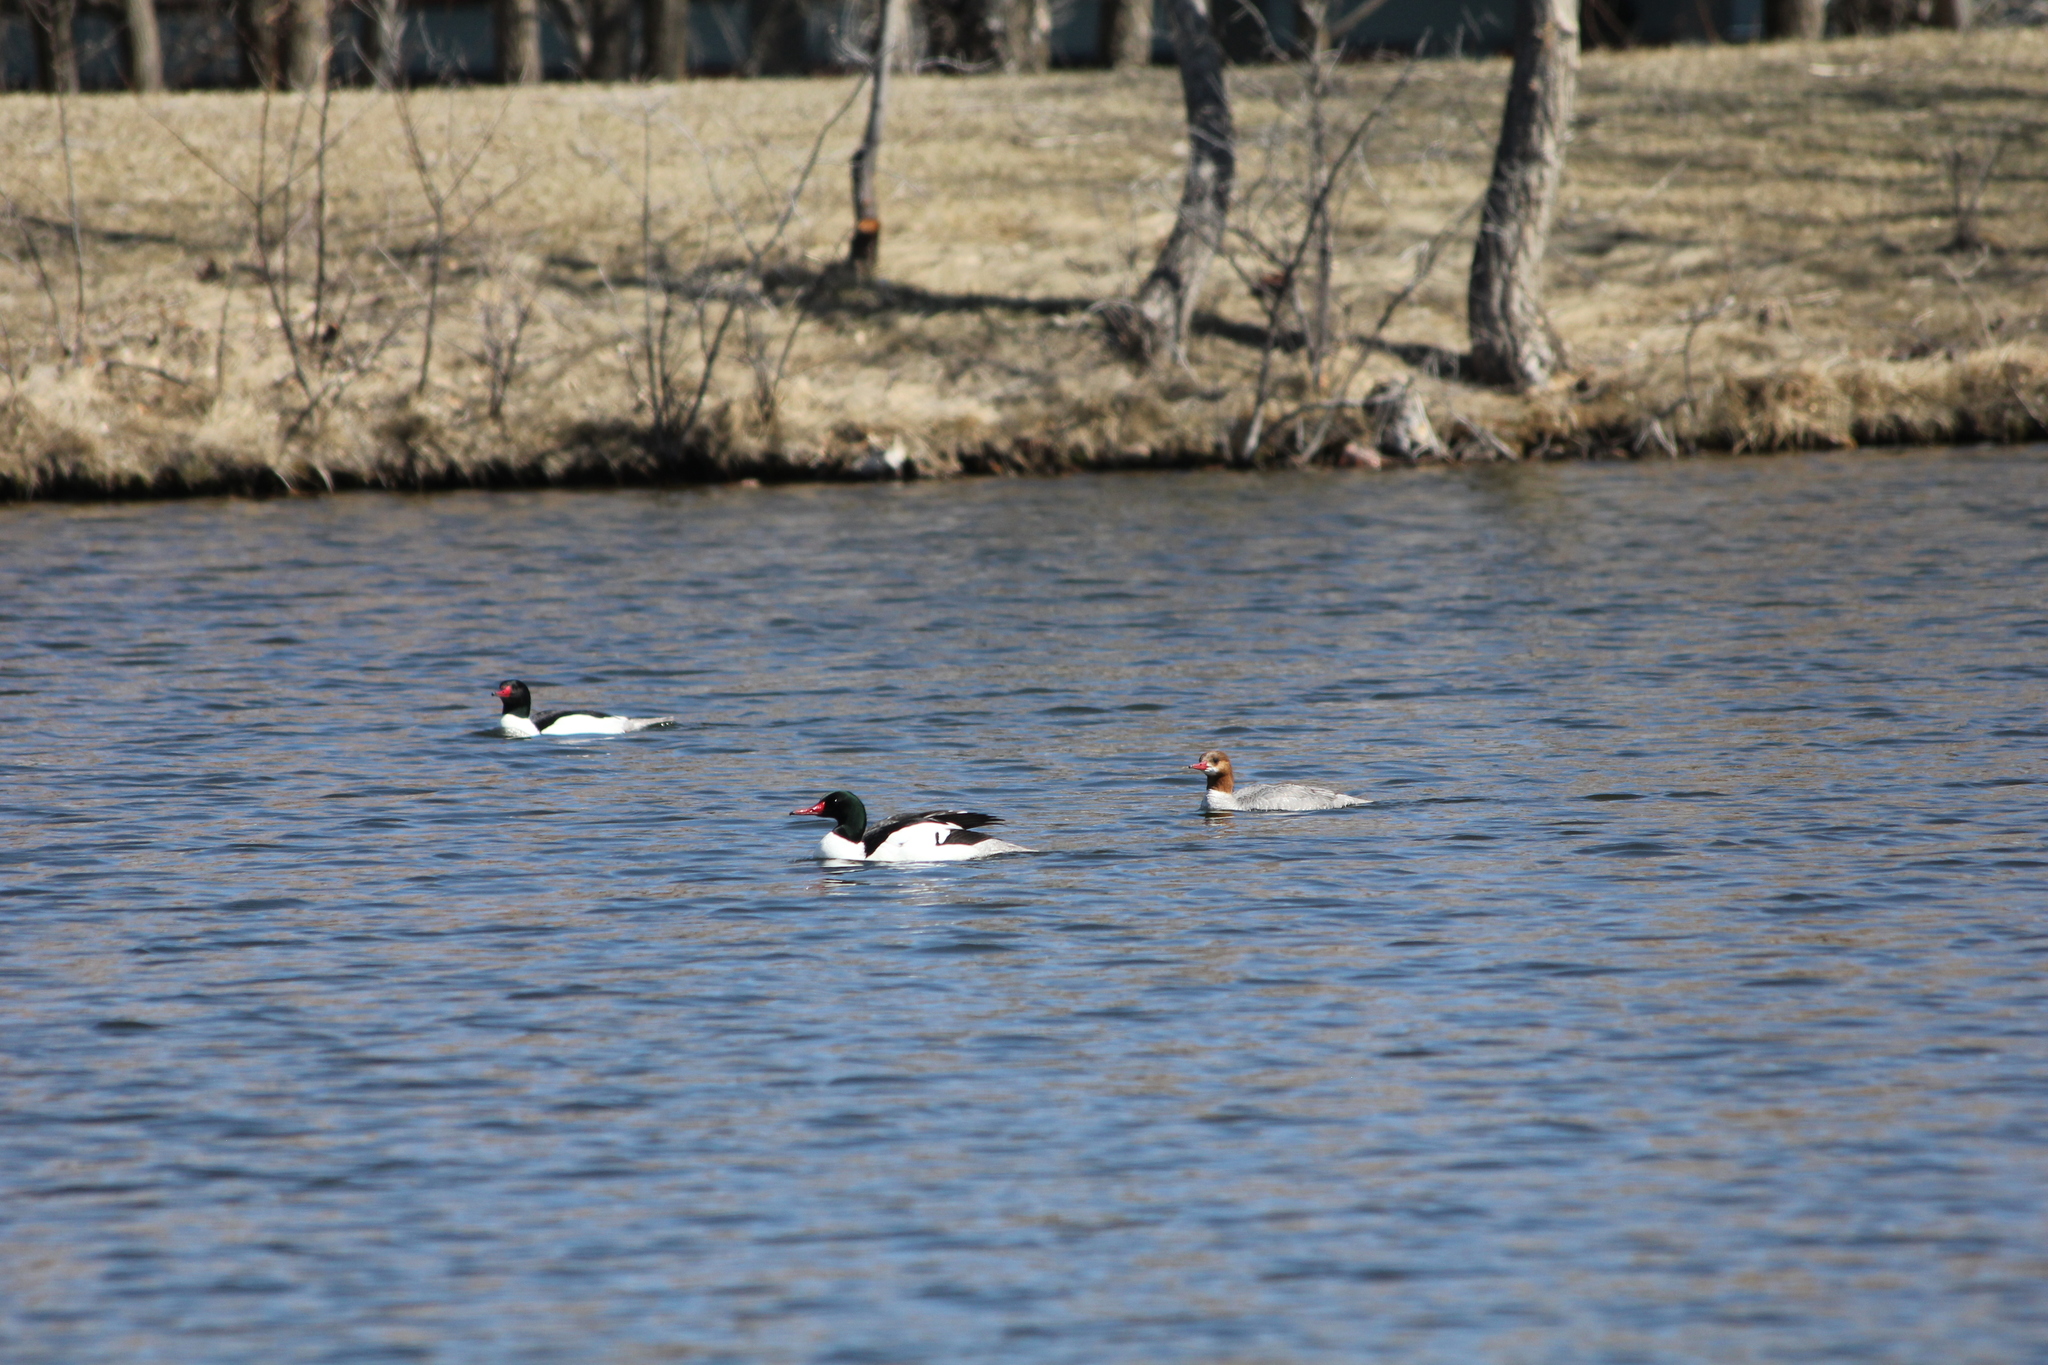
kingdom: Animalia
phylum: Chordata
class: Aves
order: Anseriformes
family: Anatidae
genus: Mergus
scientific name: Mergus merganser
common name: Common merganser
